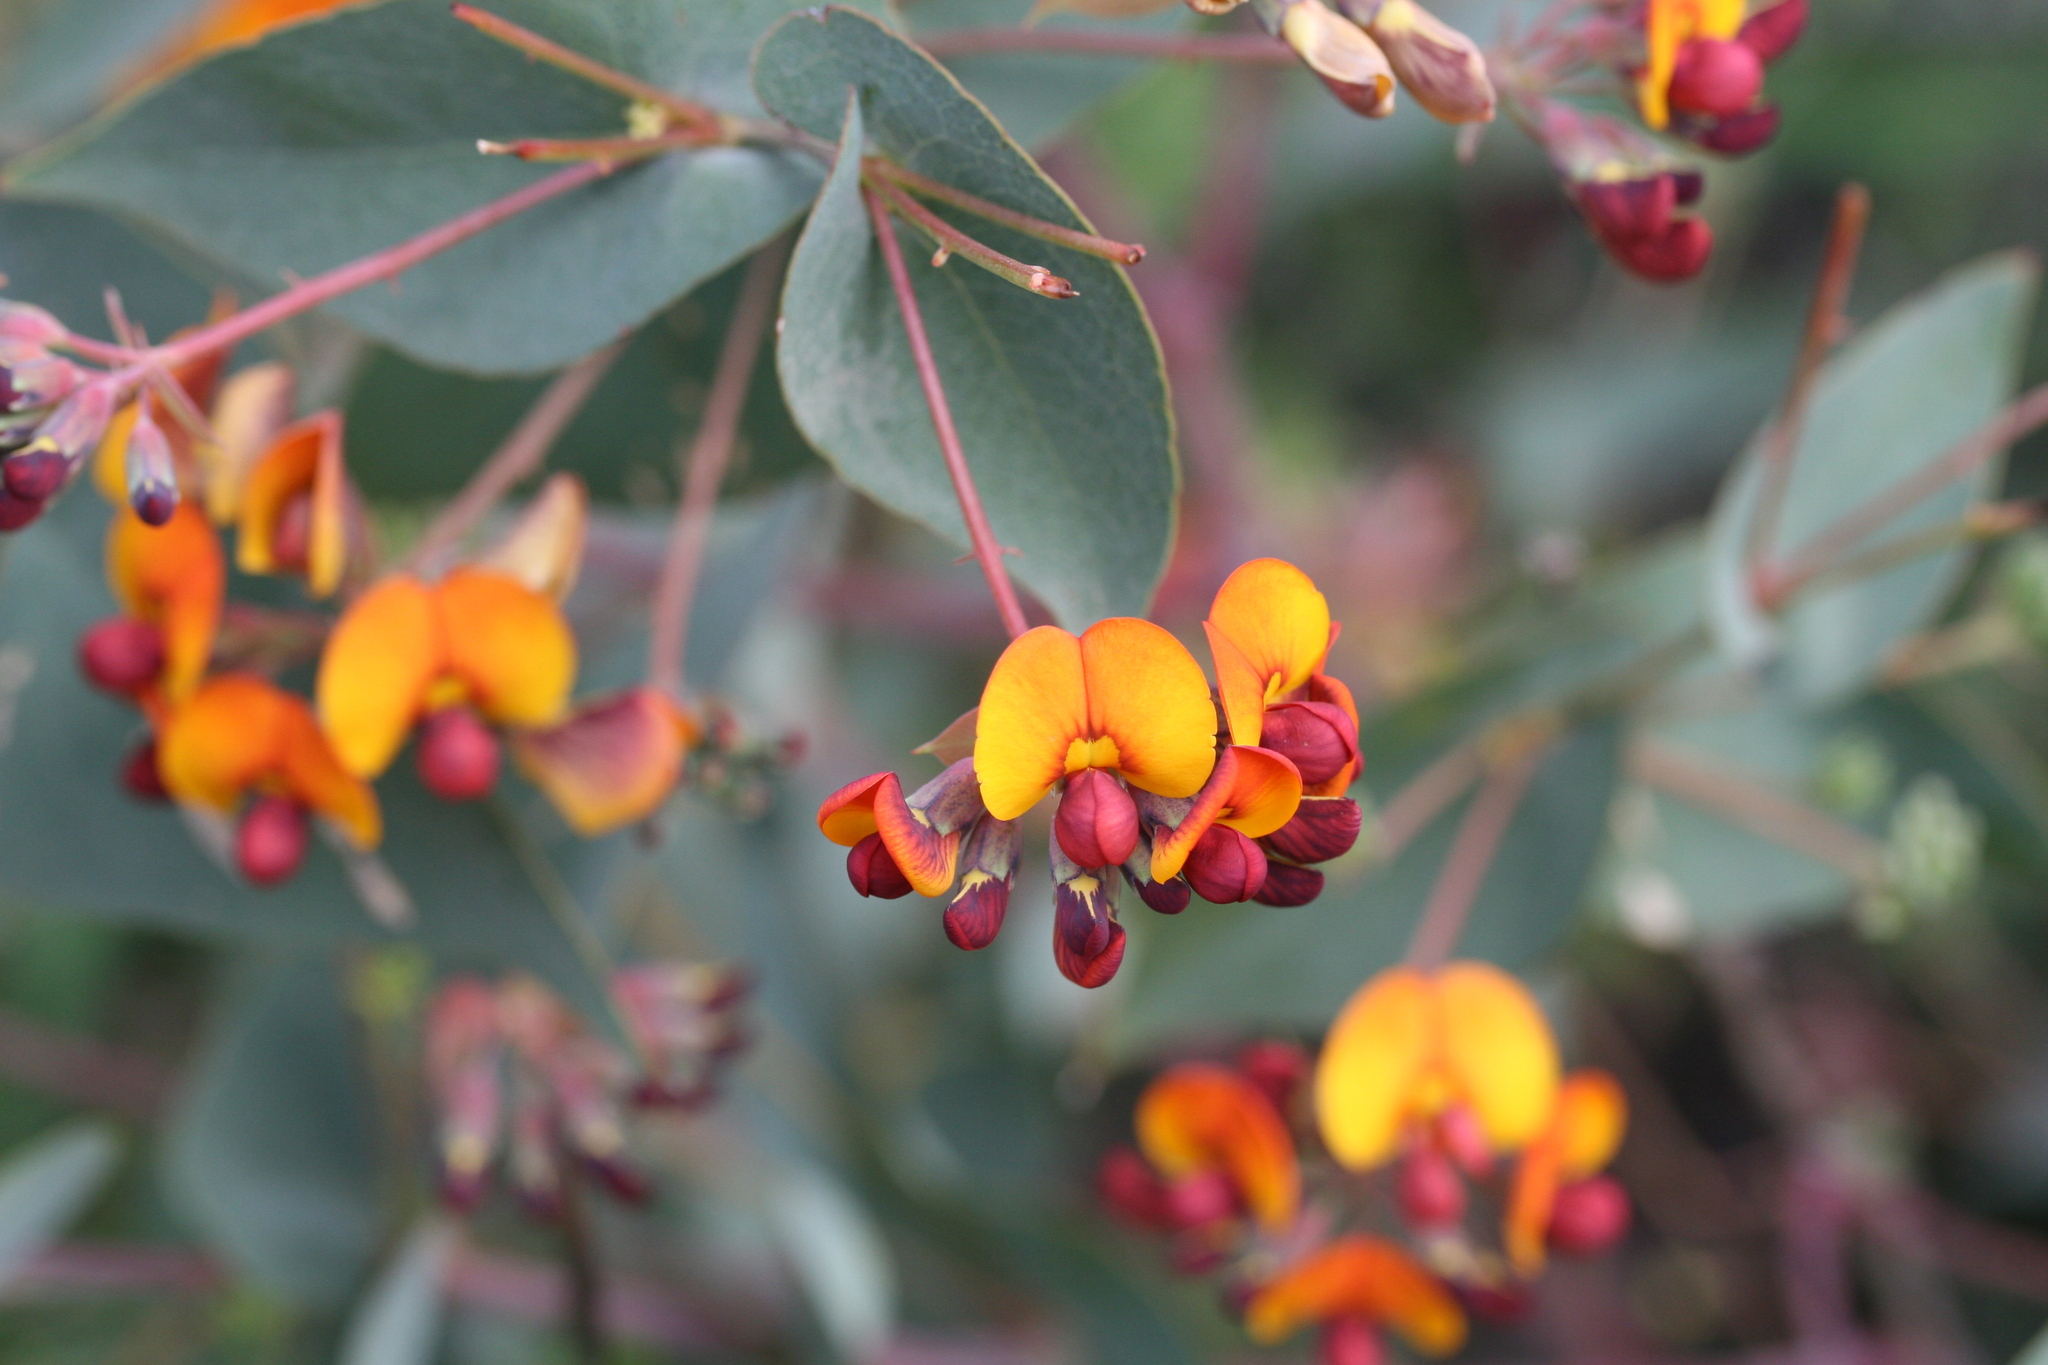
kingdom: Plantae
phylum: Tracheophyta
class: Magnoliopsida
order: Fabales
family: Fabaceae
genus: Daviesia
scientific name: Daviesia cordata
